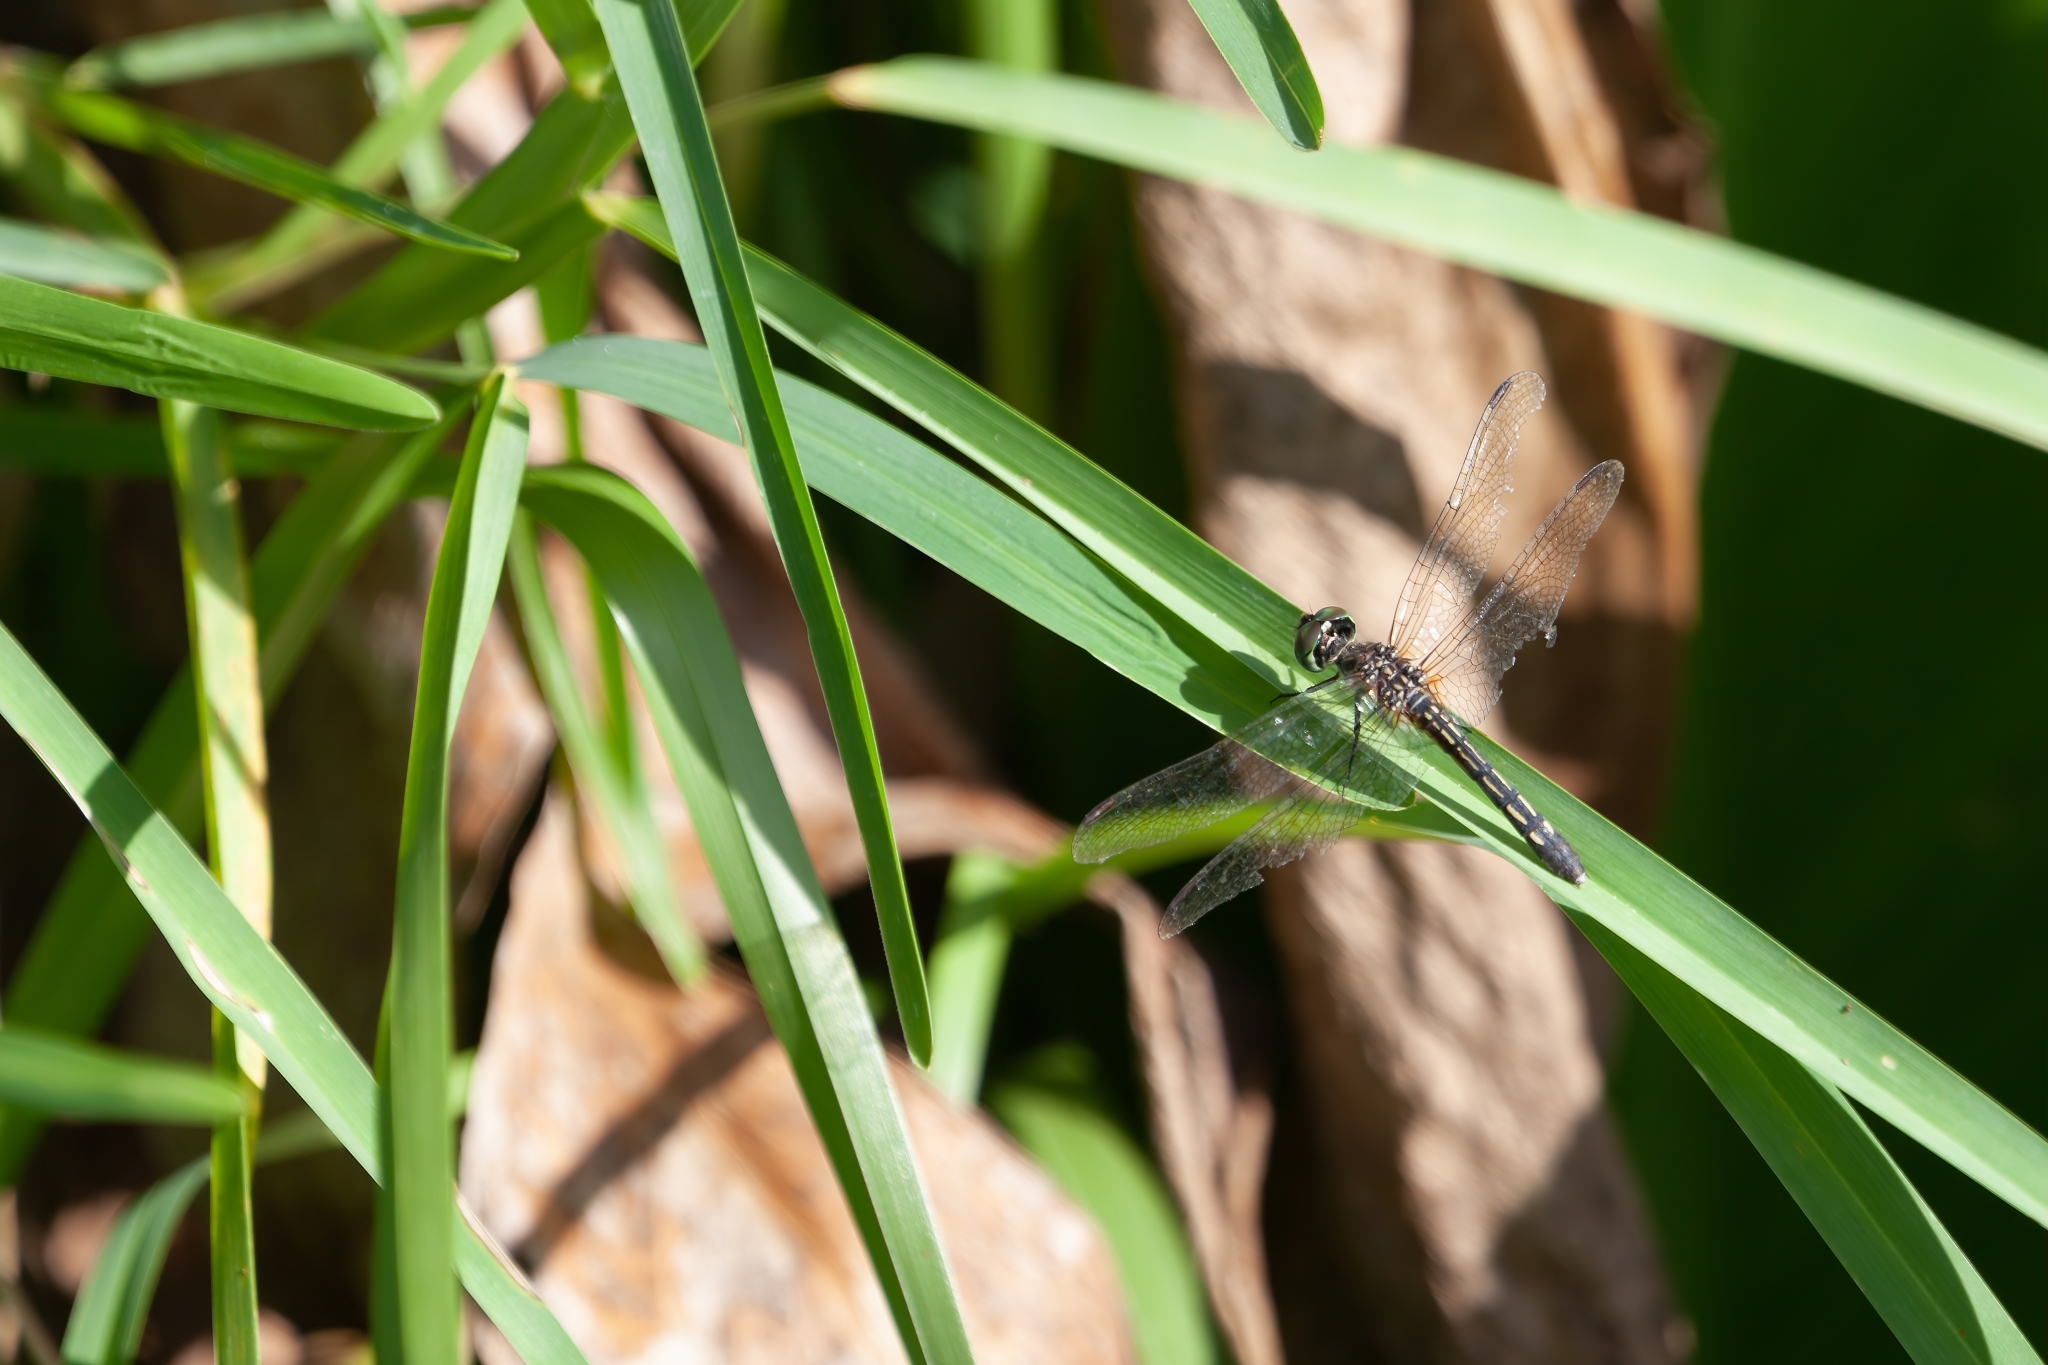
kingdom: Animalia
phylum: Arthropoda
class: Insecta
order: Odonata
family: Libellulidae
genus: Pachydiplax
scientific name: Pachydiplax longipennis
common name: Blue dasher
